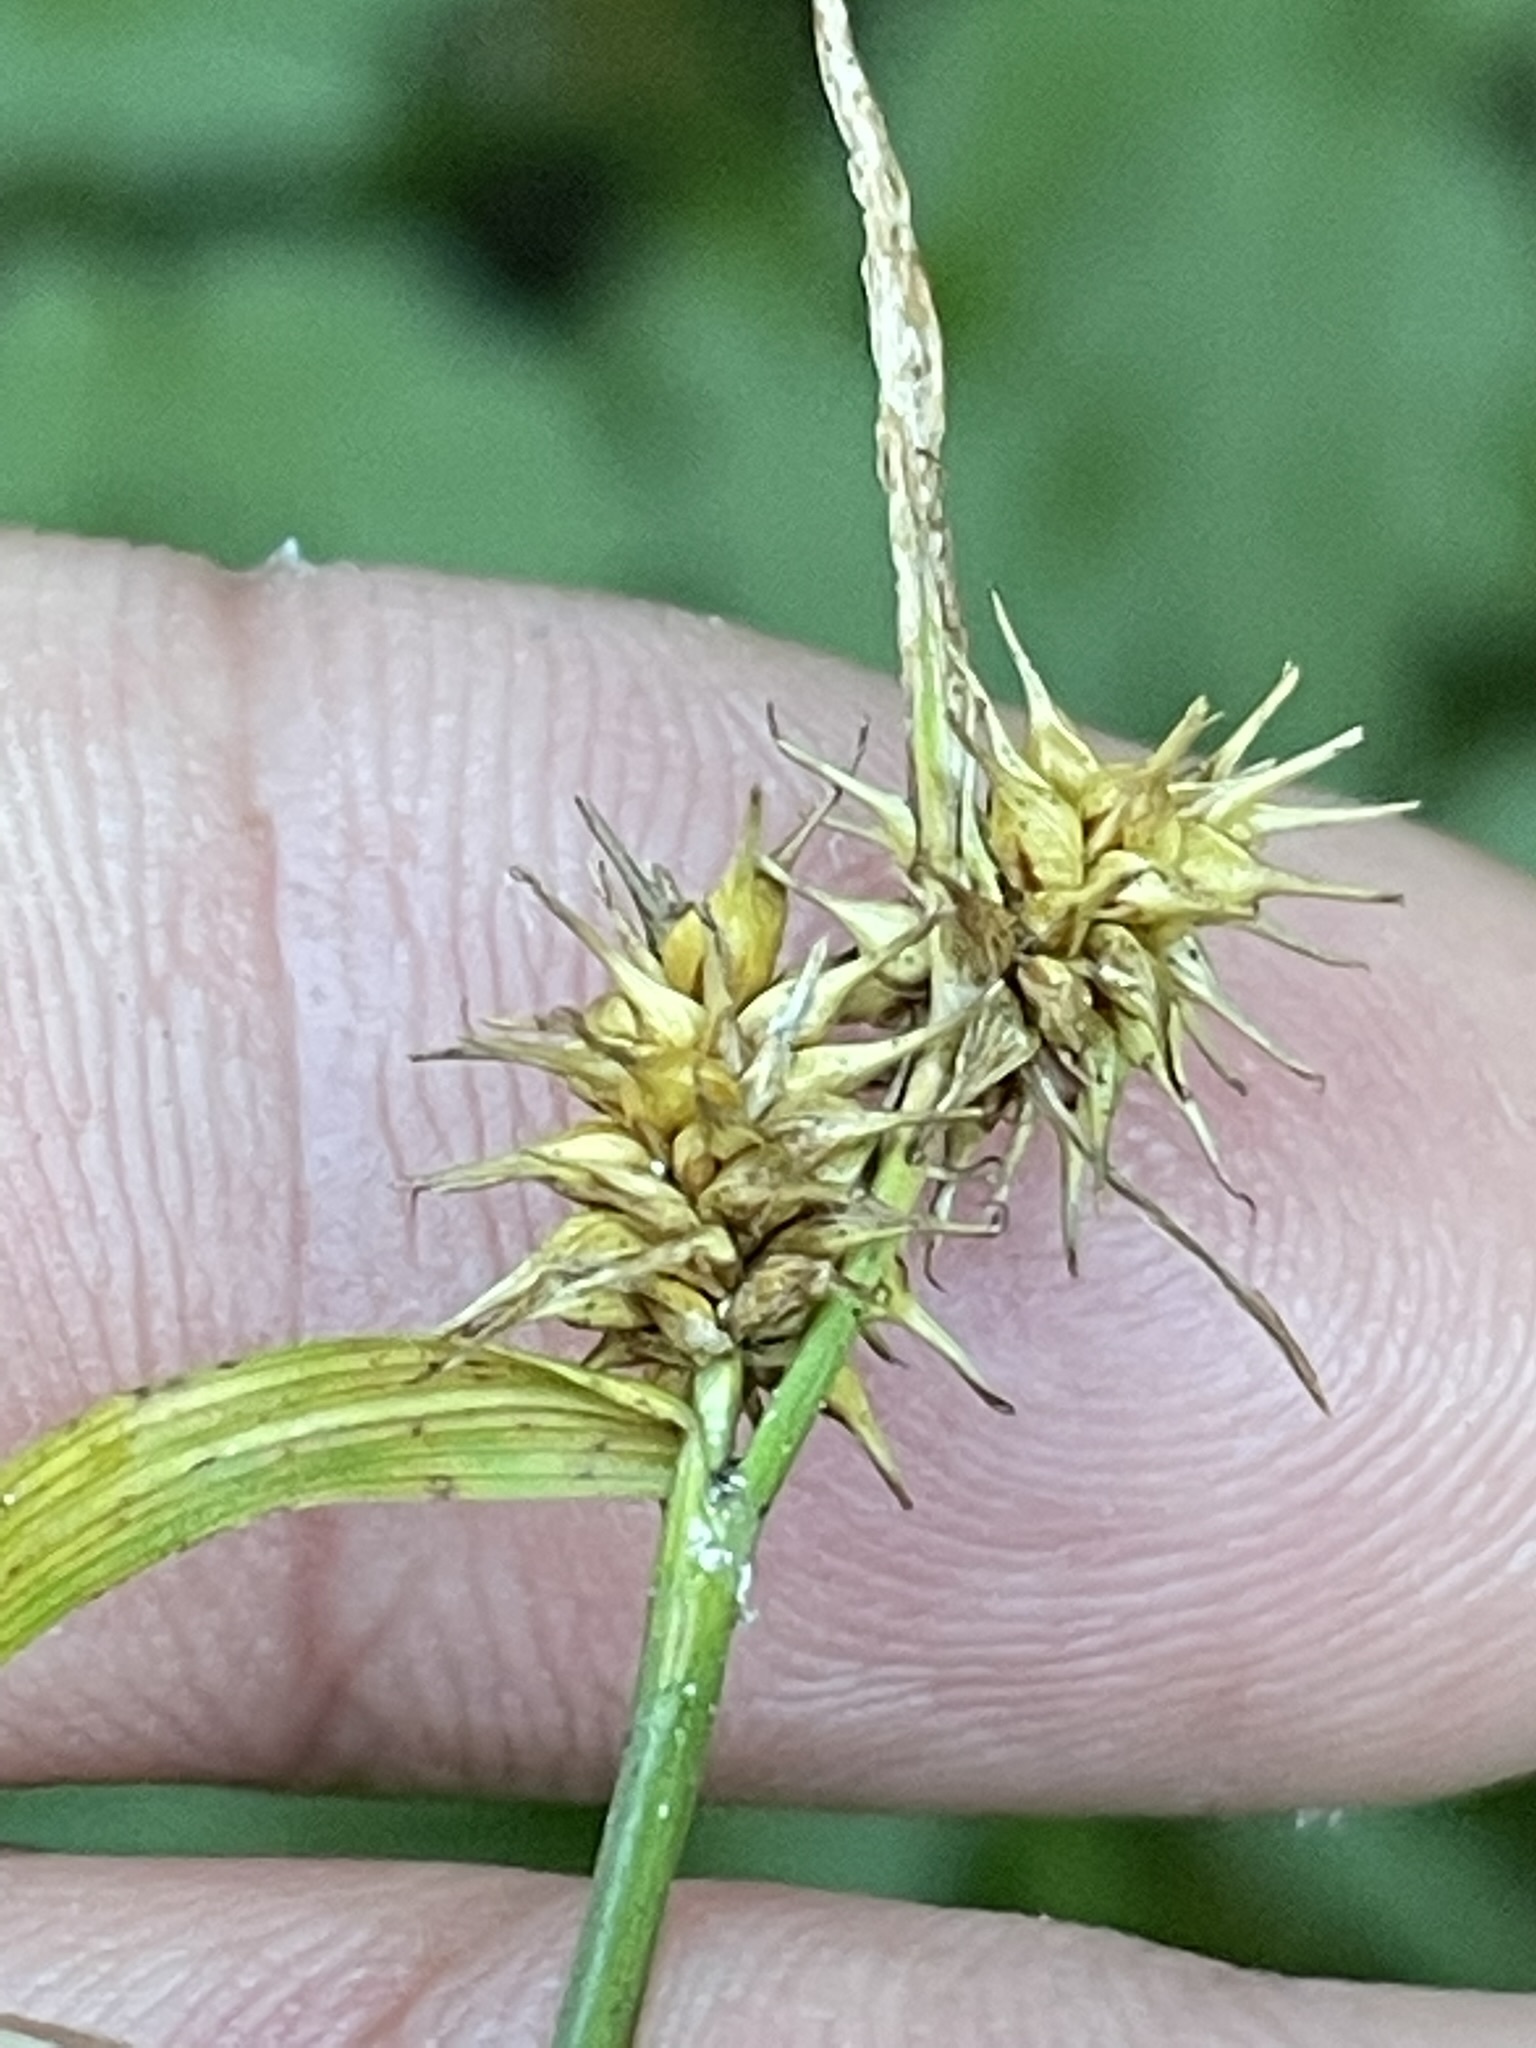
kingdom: Plantae
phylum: Tracheophyta
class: Liliopsida
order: Poales
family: Cyperaceae
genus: Carex
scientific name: Carex flava
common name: Large yellow-sedge
